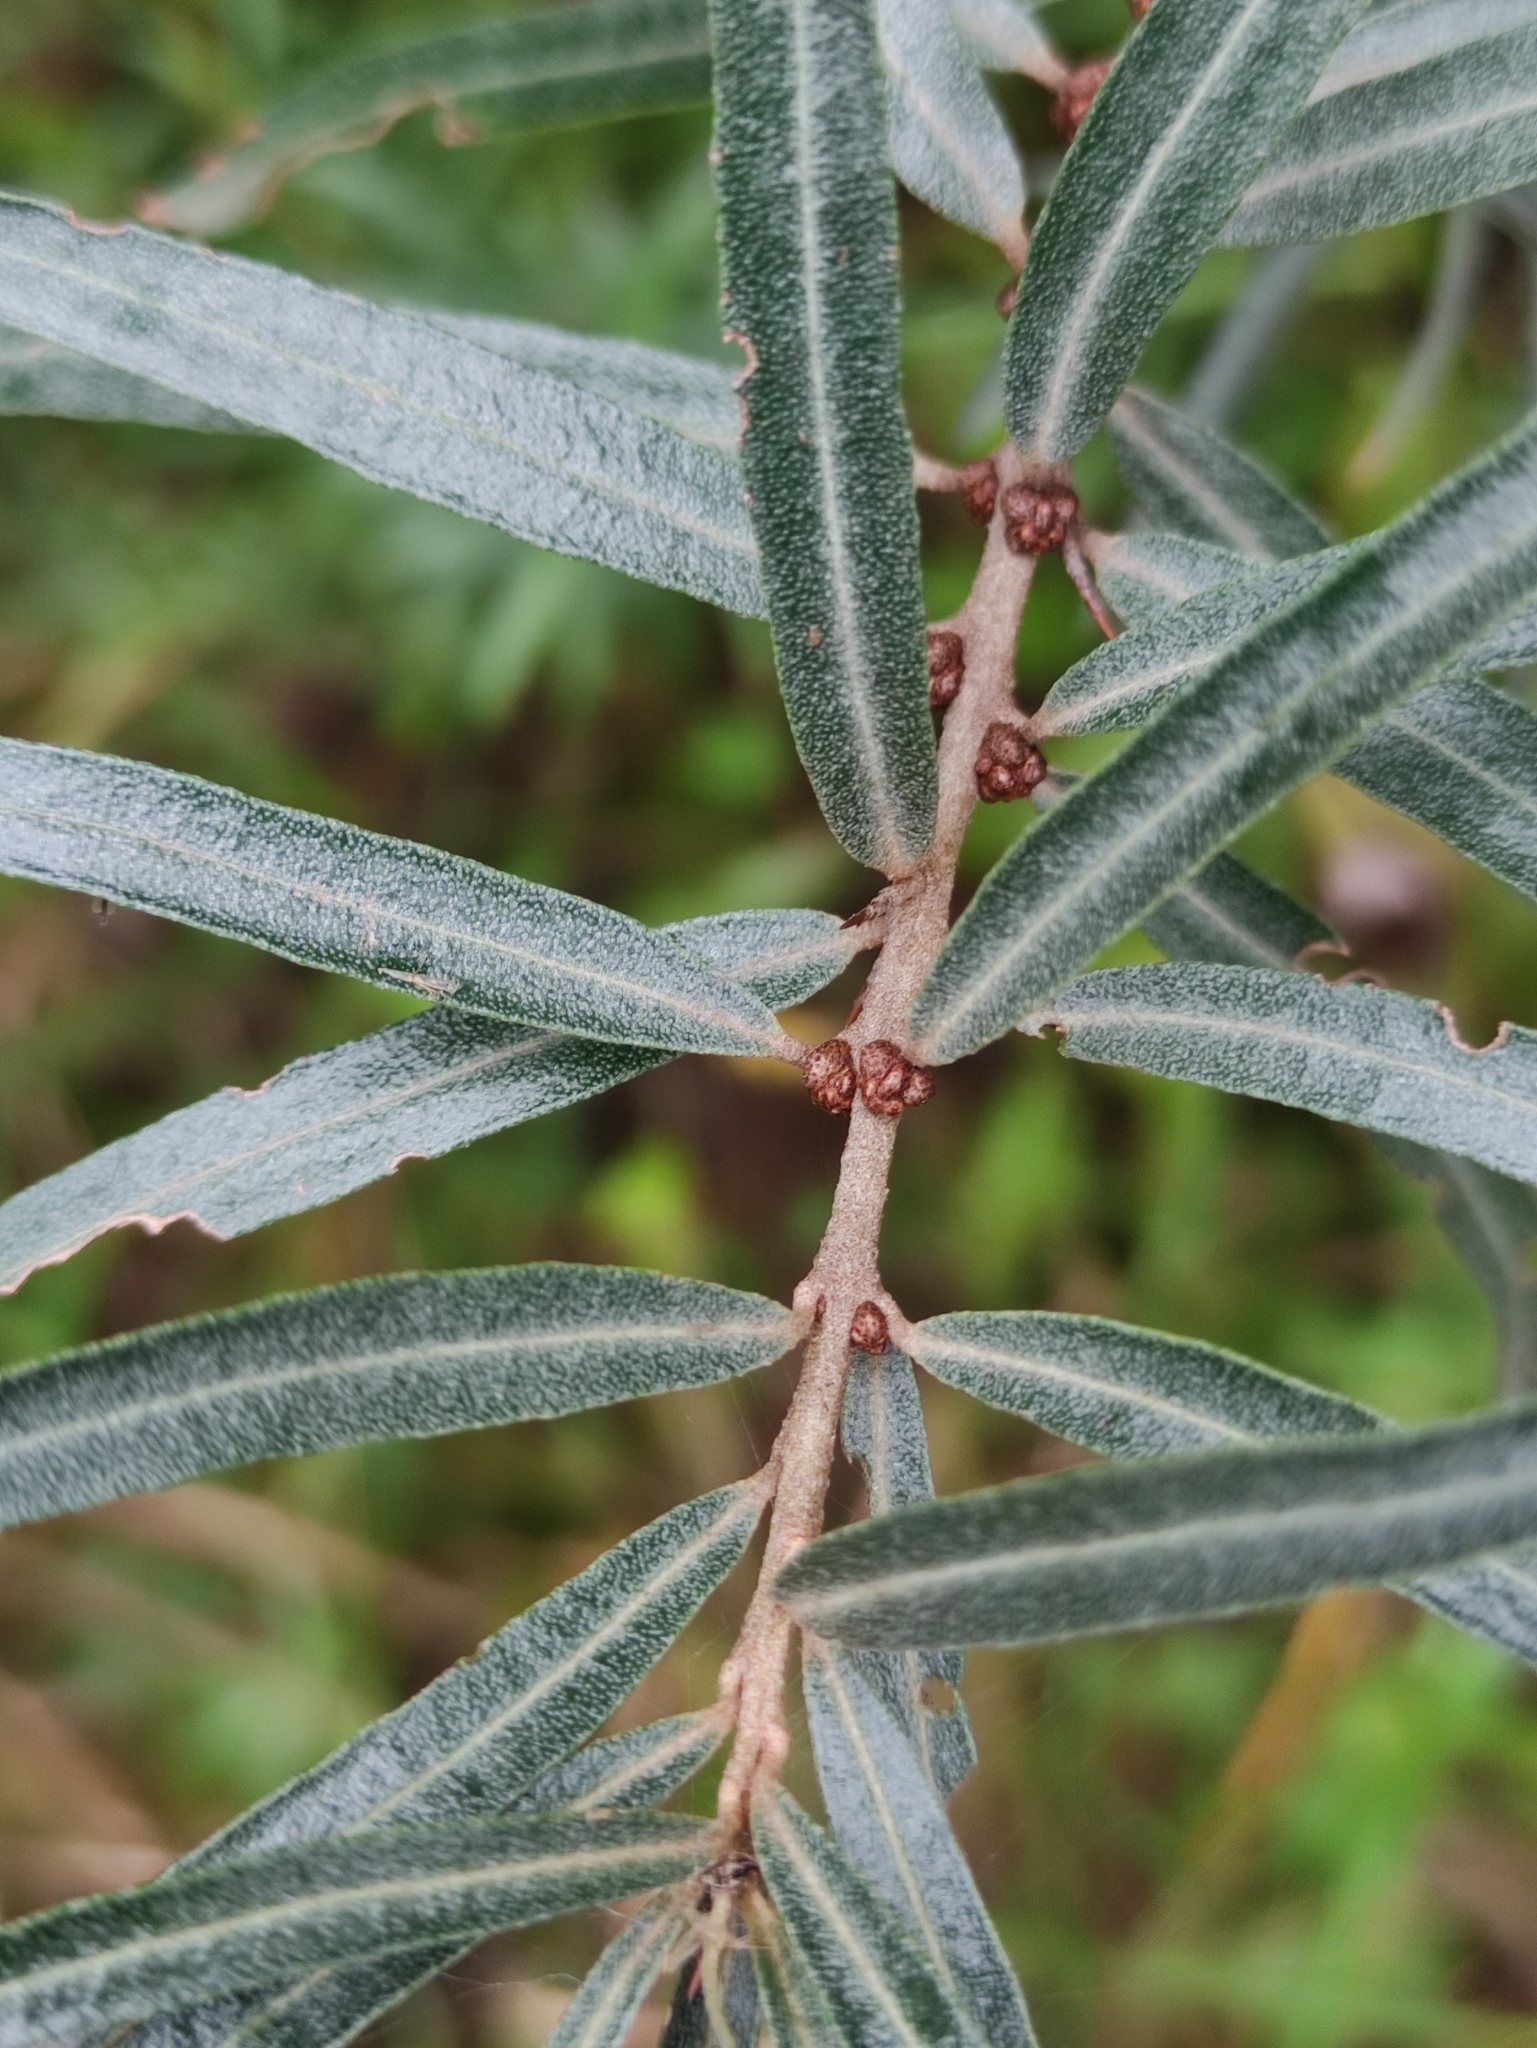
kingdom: Plantae
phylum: Tracheophyta
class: Magnoliopsida
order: Rosales
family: Elaeagnaceae
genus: Hippophae
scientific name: Hippophae rhamnoides
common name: Sea-buckthorn
